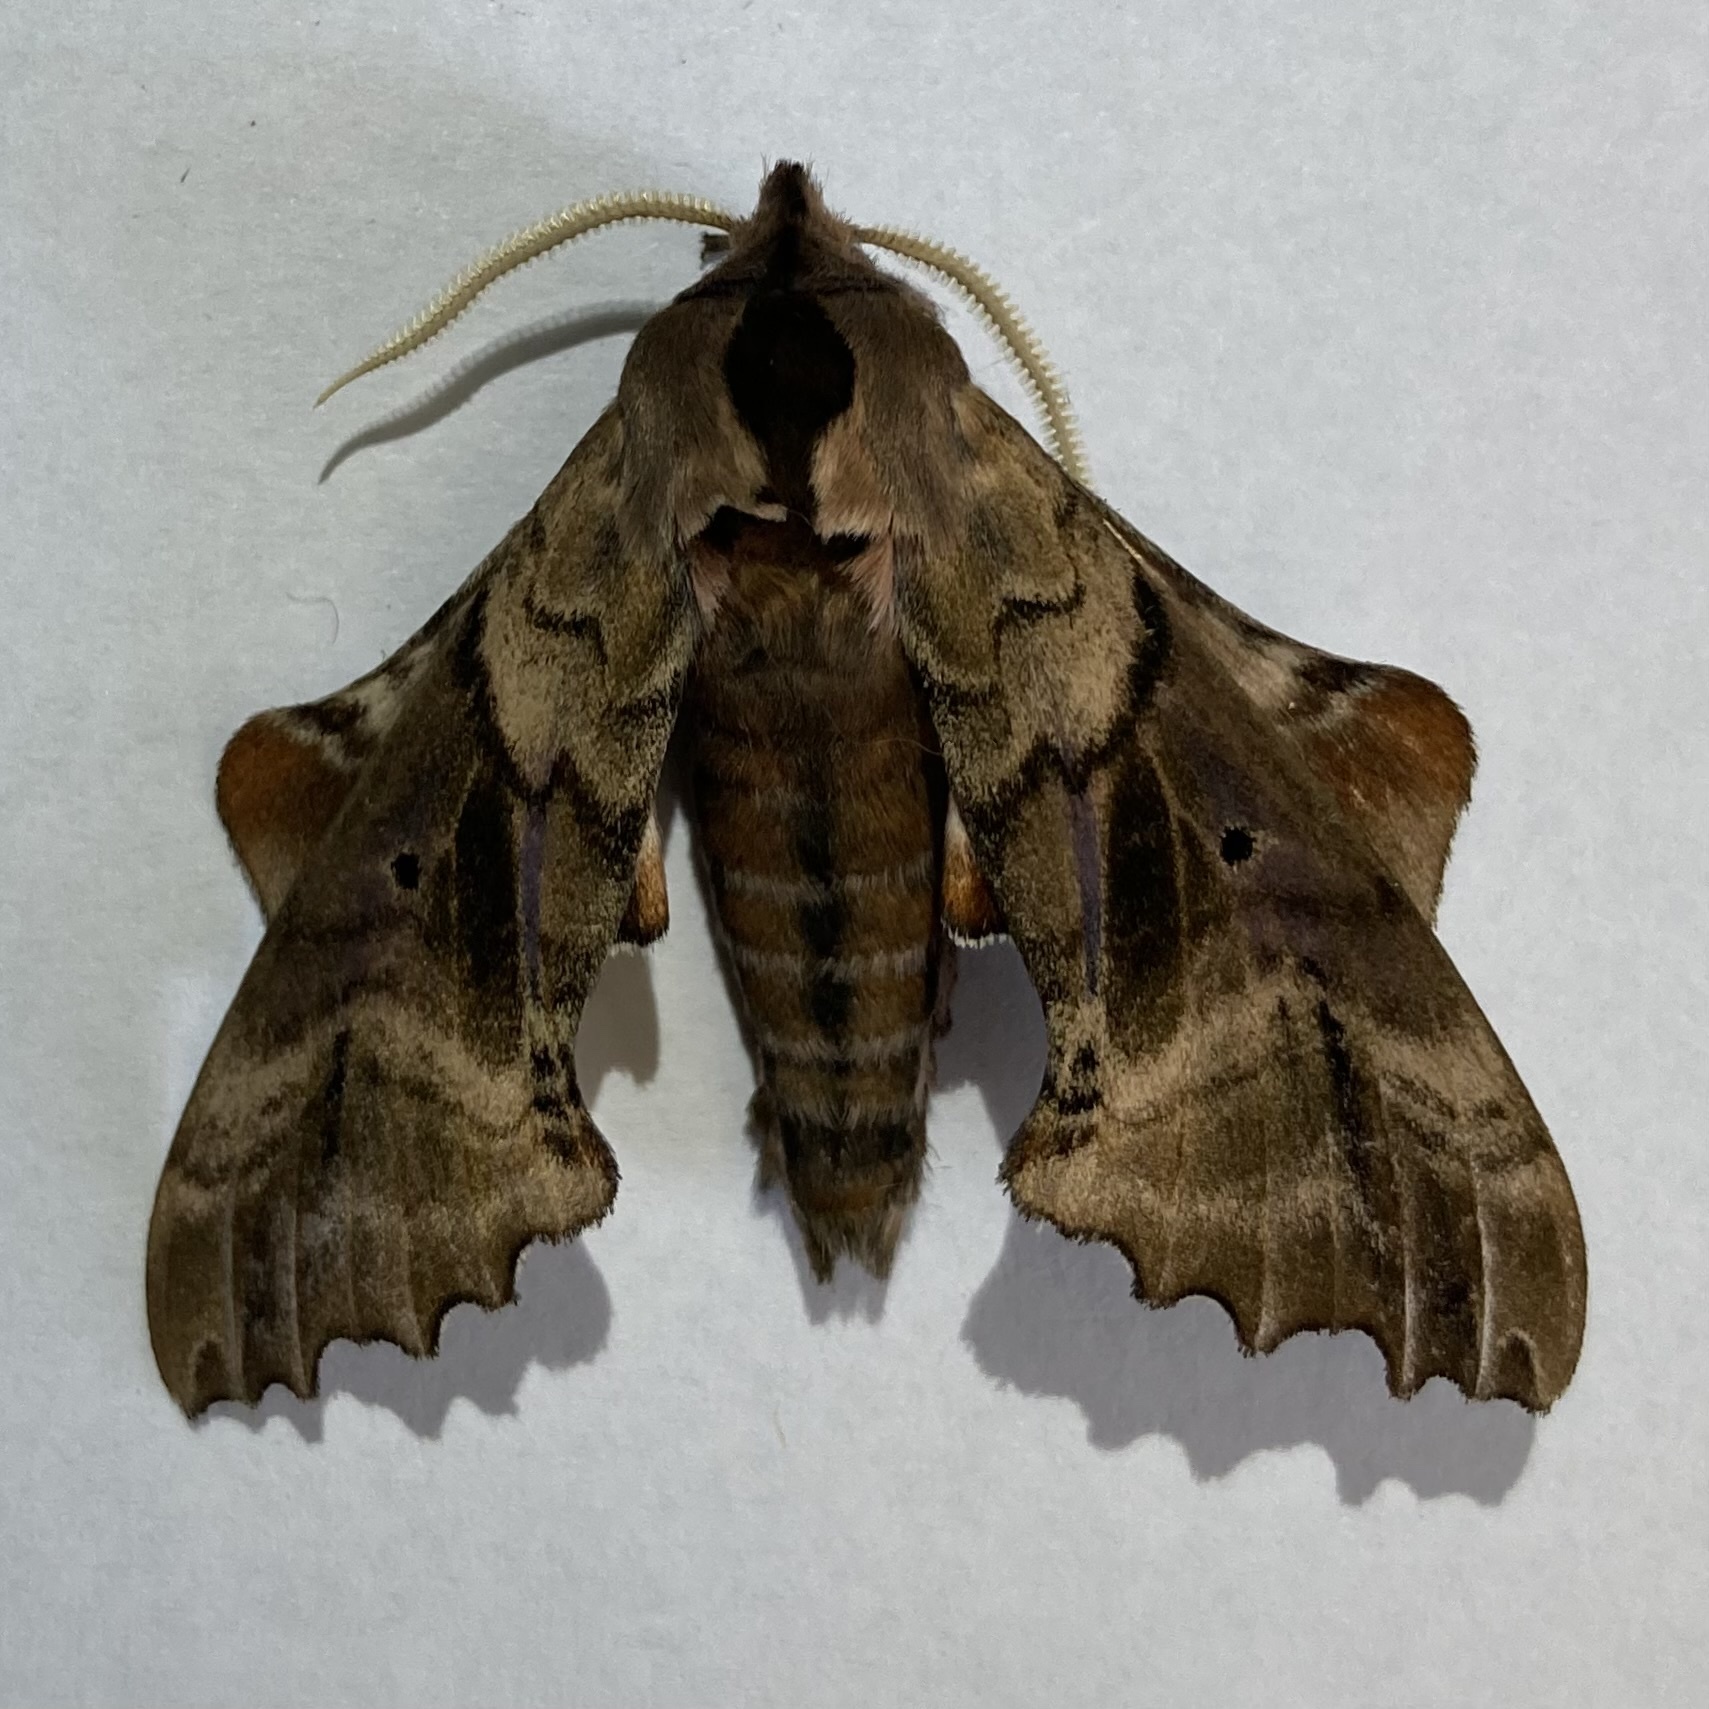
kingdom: Animalia
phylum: Arthropoda
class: Insecta
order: Lepidoptera
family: Sphingidae
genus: Paonias
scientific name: Paonias excaecata
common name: Blind-eyed sphinx
